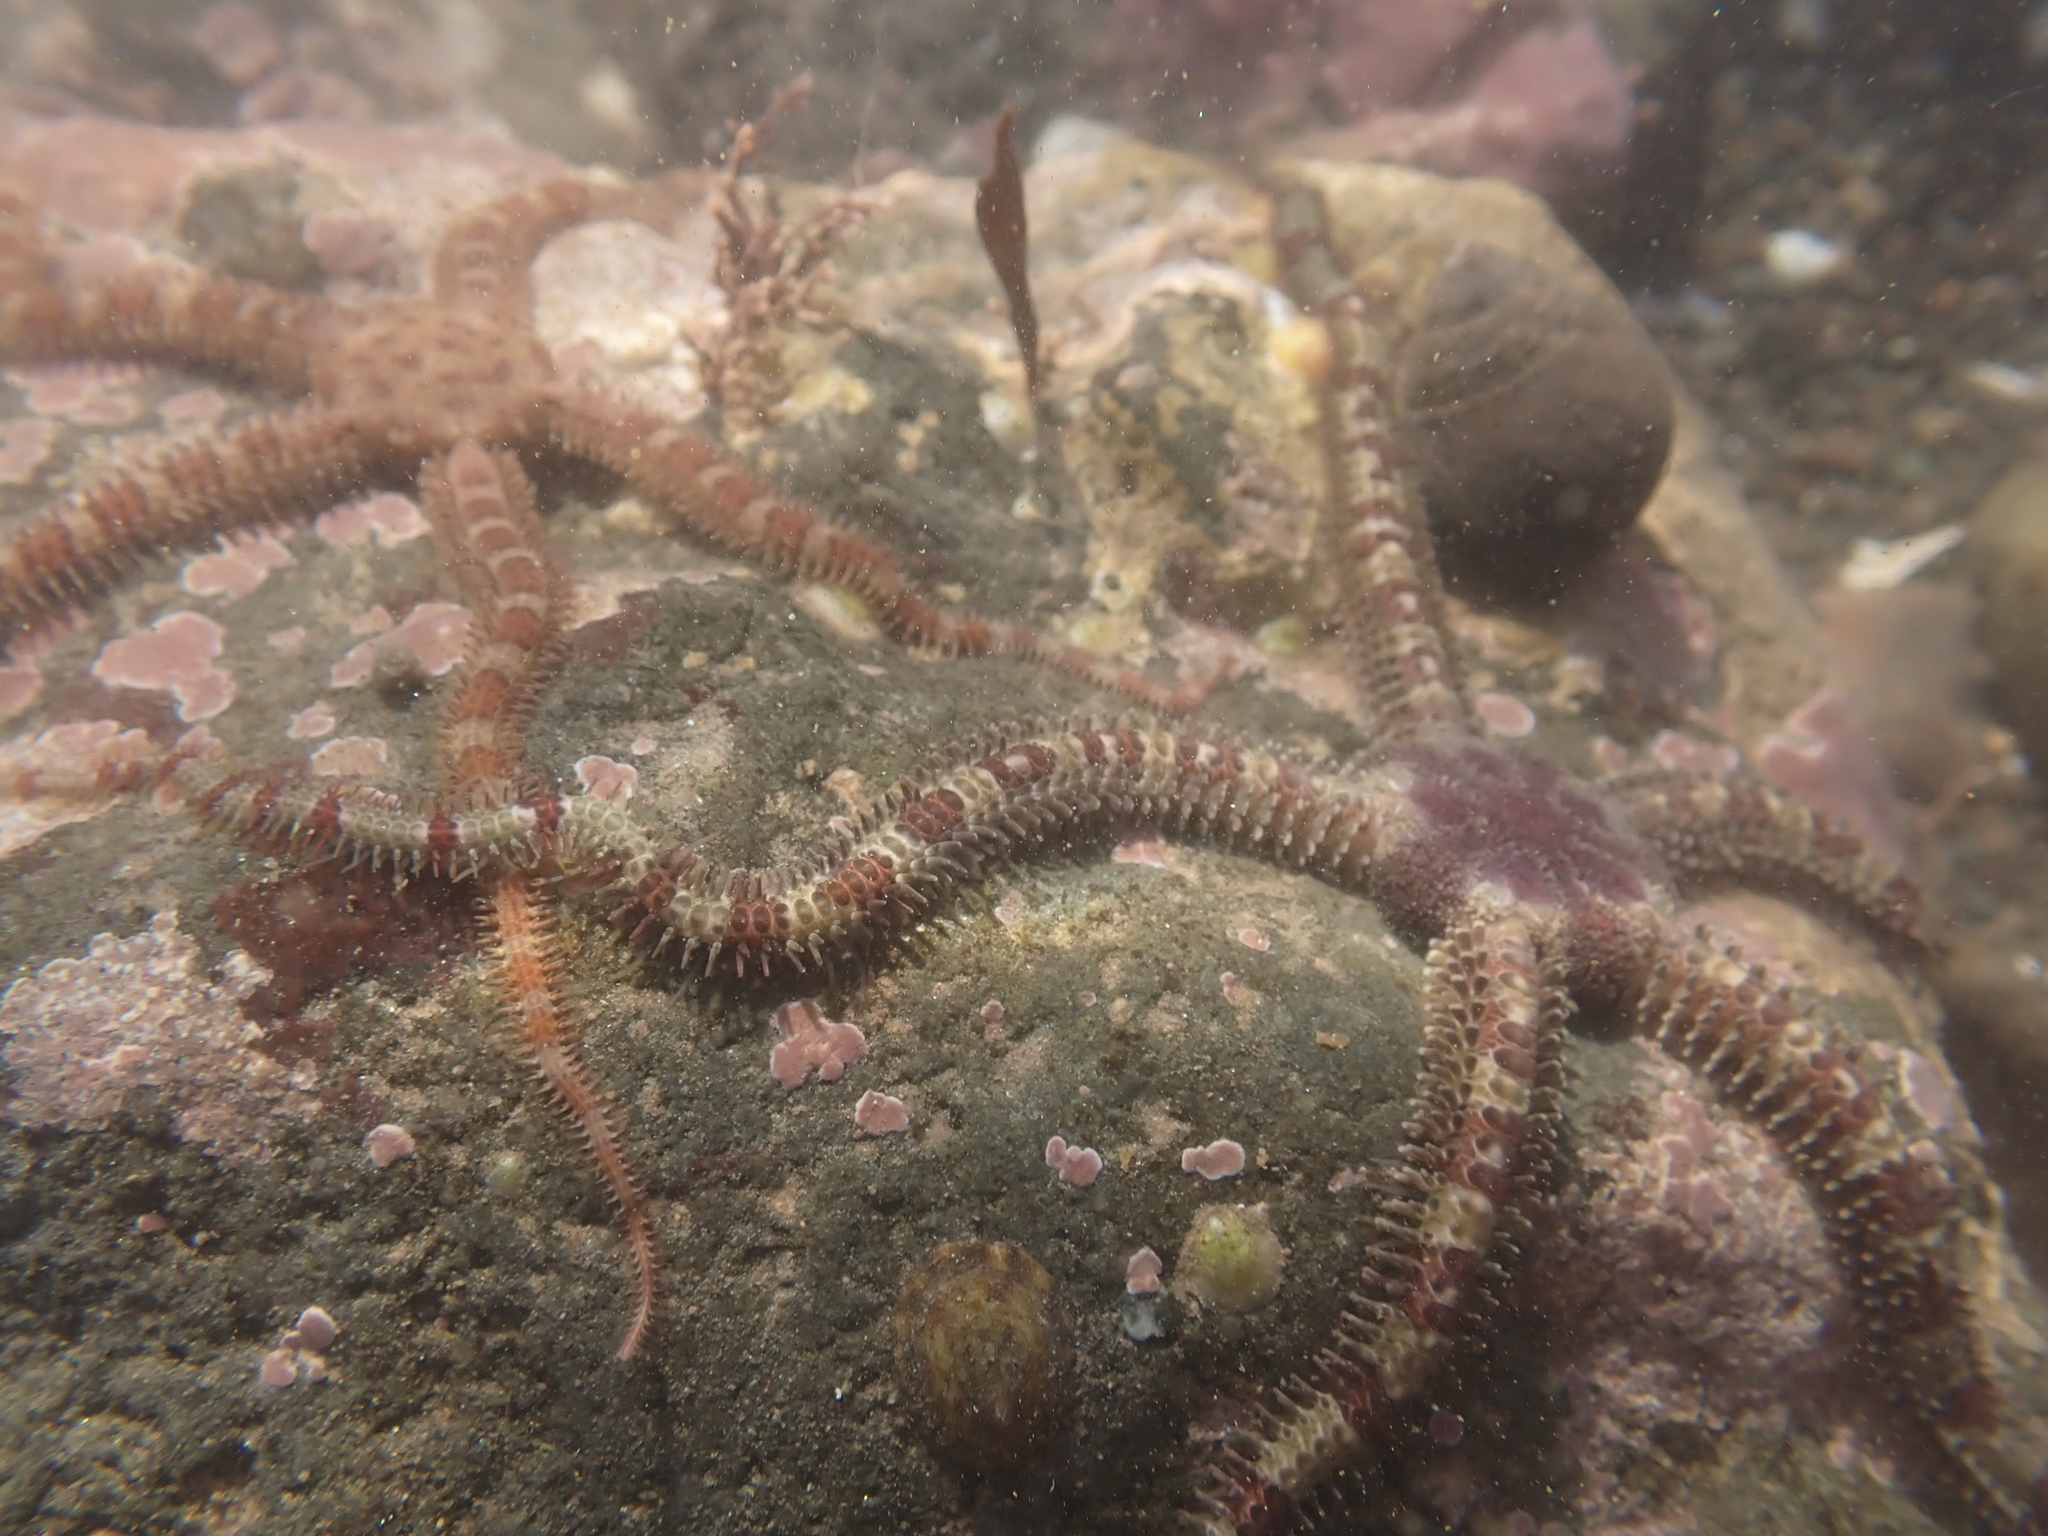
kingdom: Animalia
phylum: Echinodermata
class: Ophiuroidea
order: Amphilepidida
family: Ophiopholidae
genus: Ophiopholis
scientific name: Ophiopholis aculeata
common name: Crevice brittlestar
